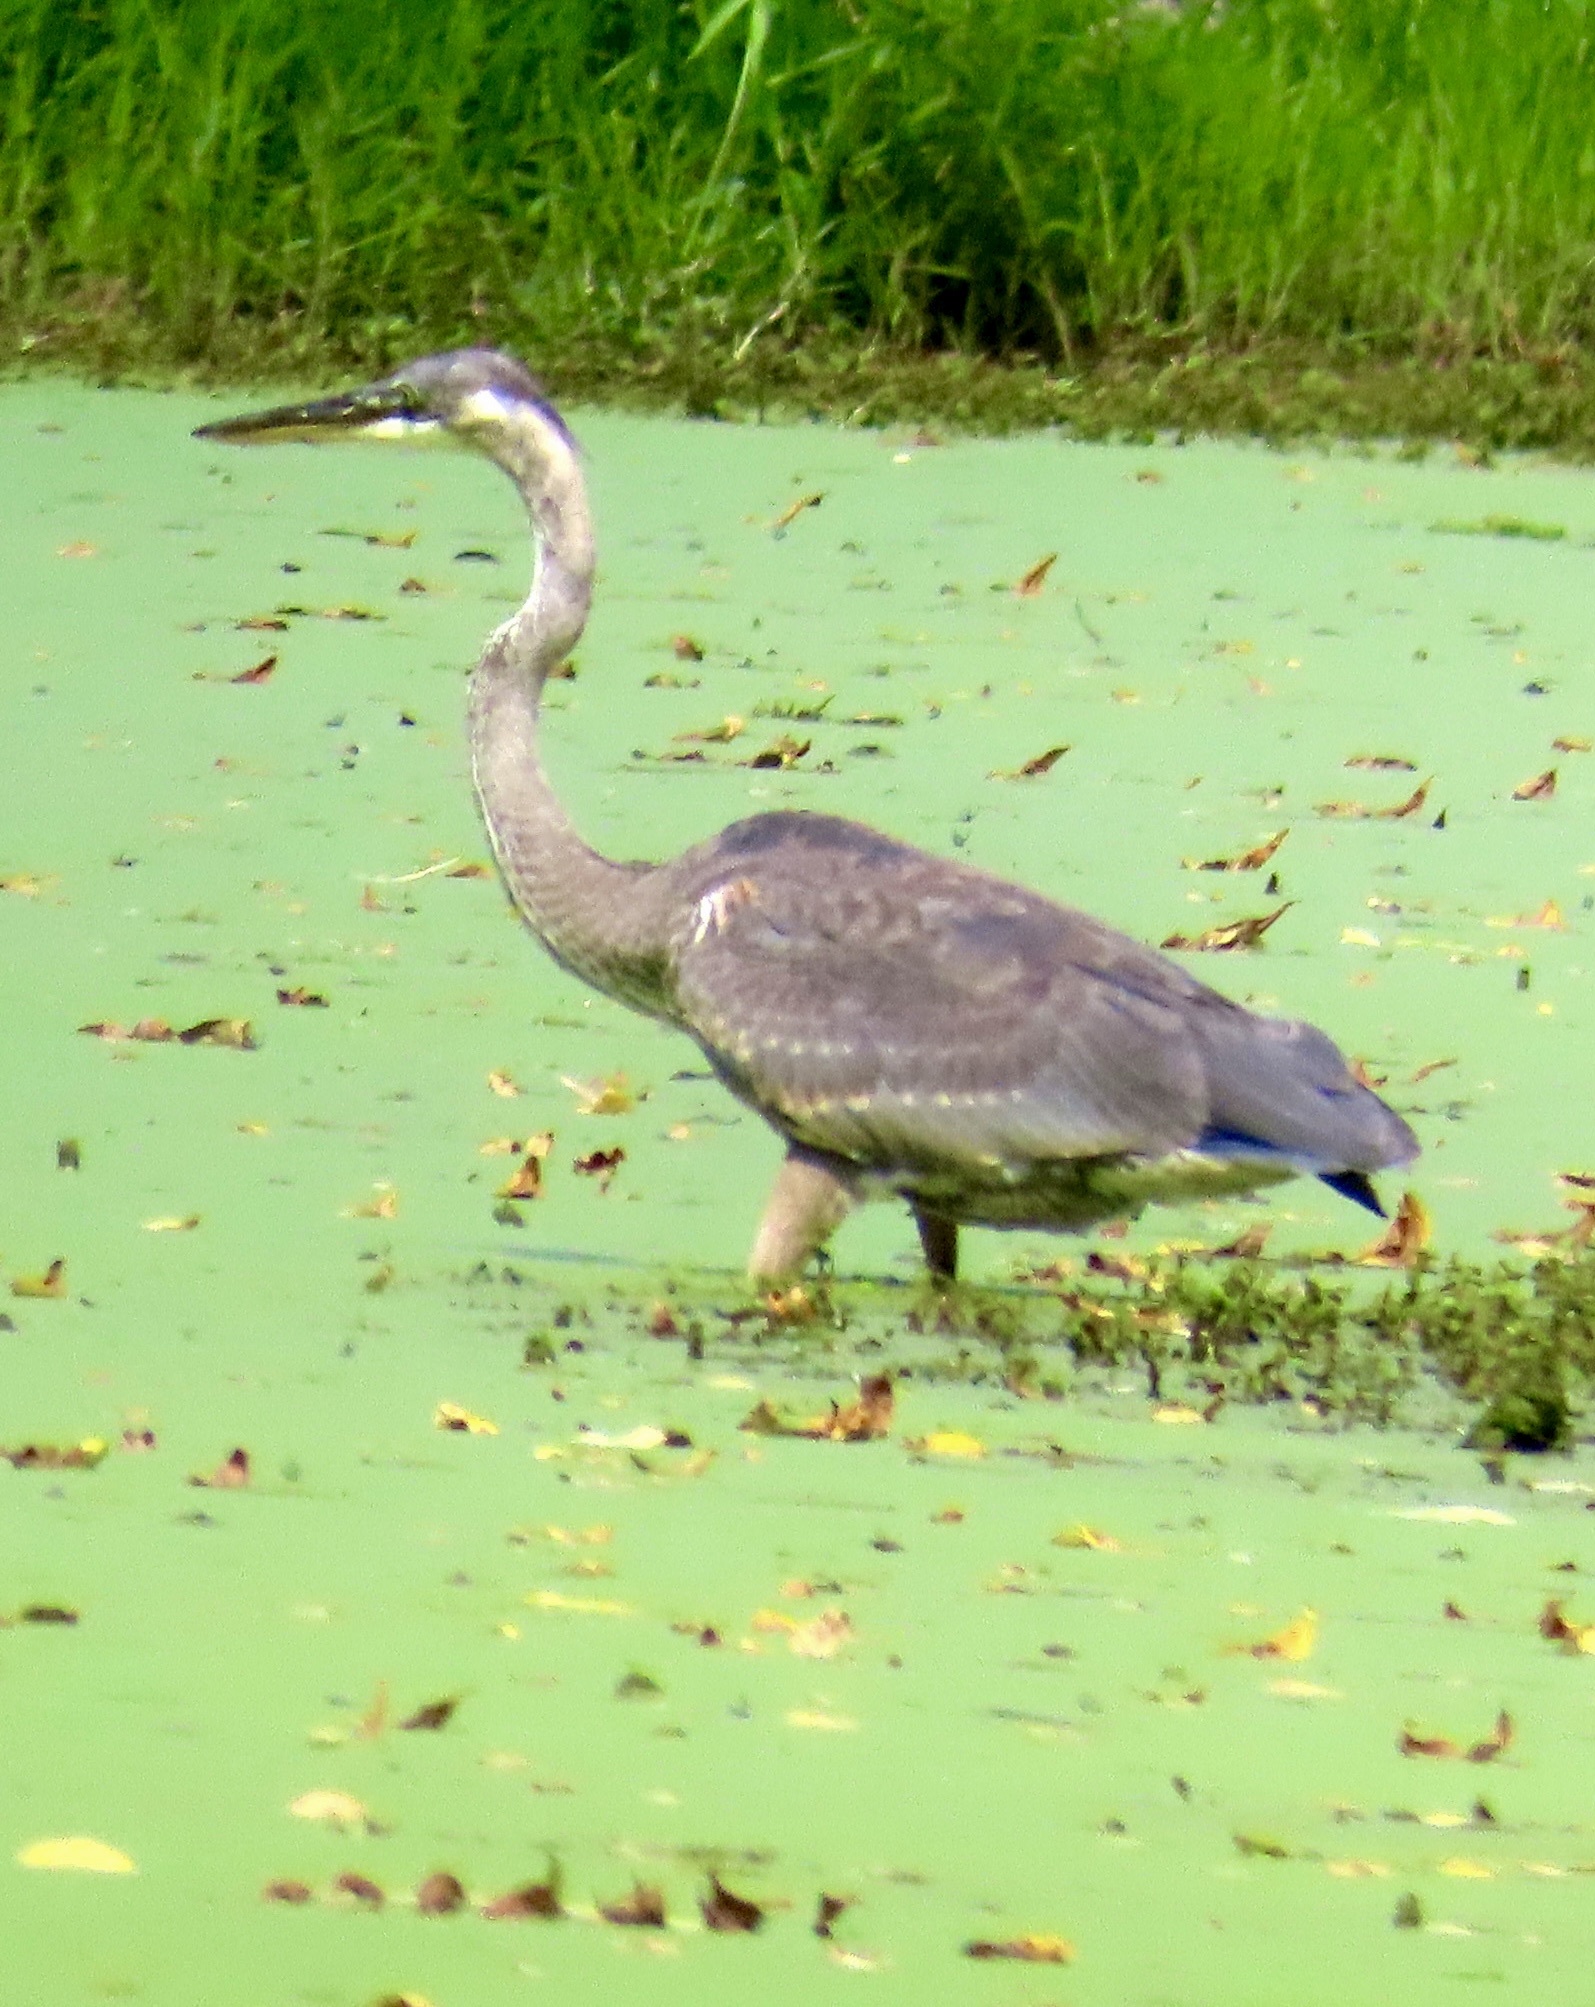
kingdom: Animalia
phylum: Chordata
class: Aves
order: Pelecaniformes
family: Ardeidae
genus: Ardea
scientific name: Ardea herodias
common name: Great blue heron
